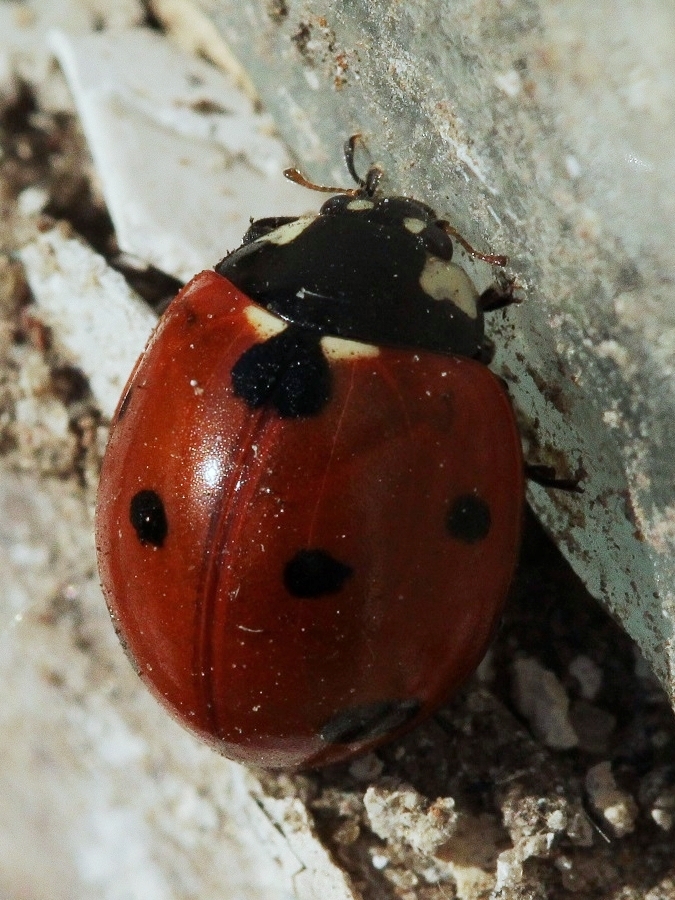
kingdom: Animalia
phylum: Arthropoda
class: Insecta
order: Coleoptera
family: Coccinellidae
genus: Coccinella
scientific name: Coccinella septempunctata
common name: Sevenspotted lady beetle
